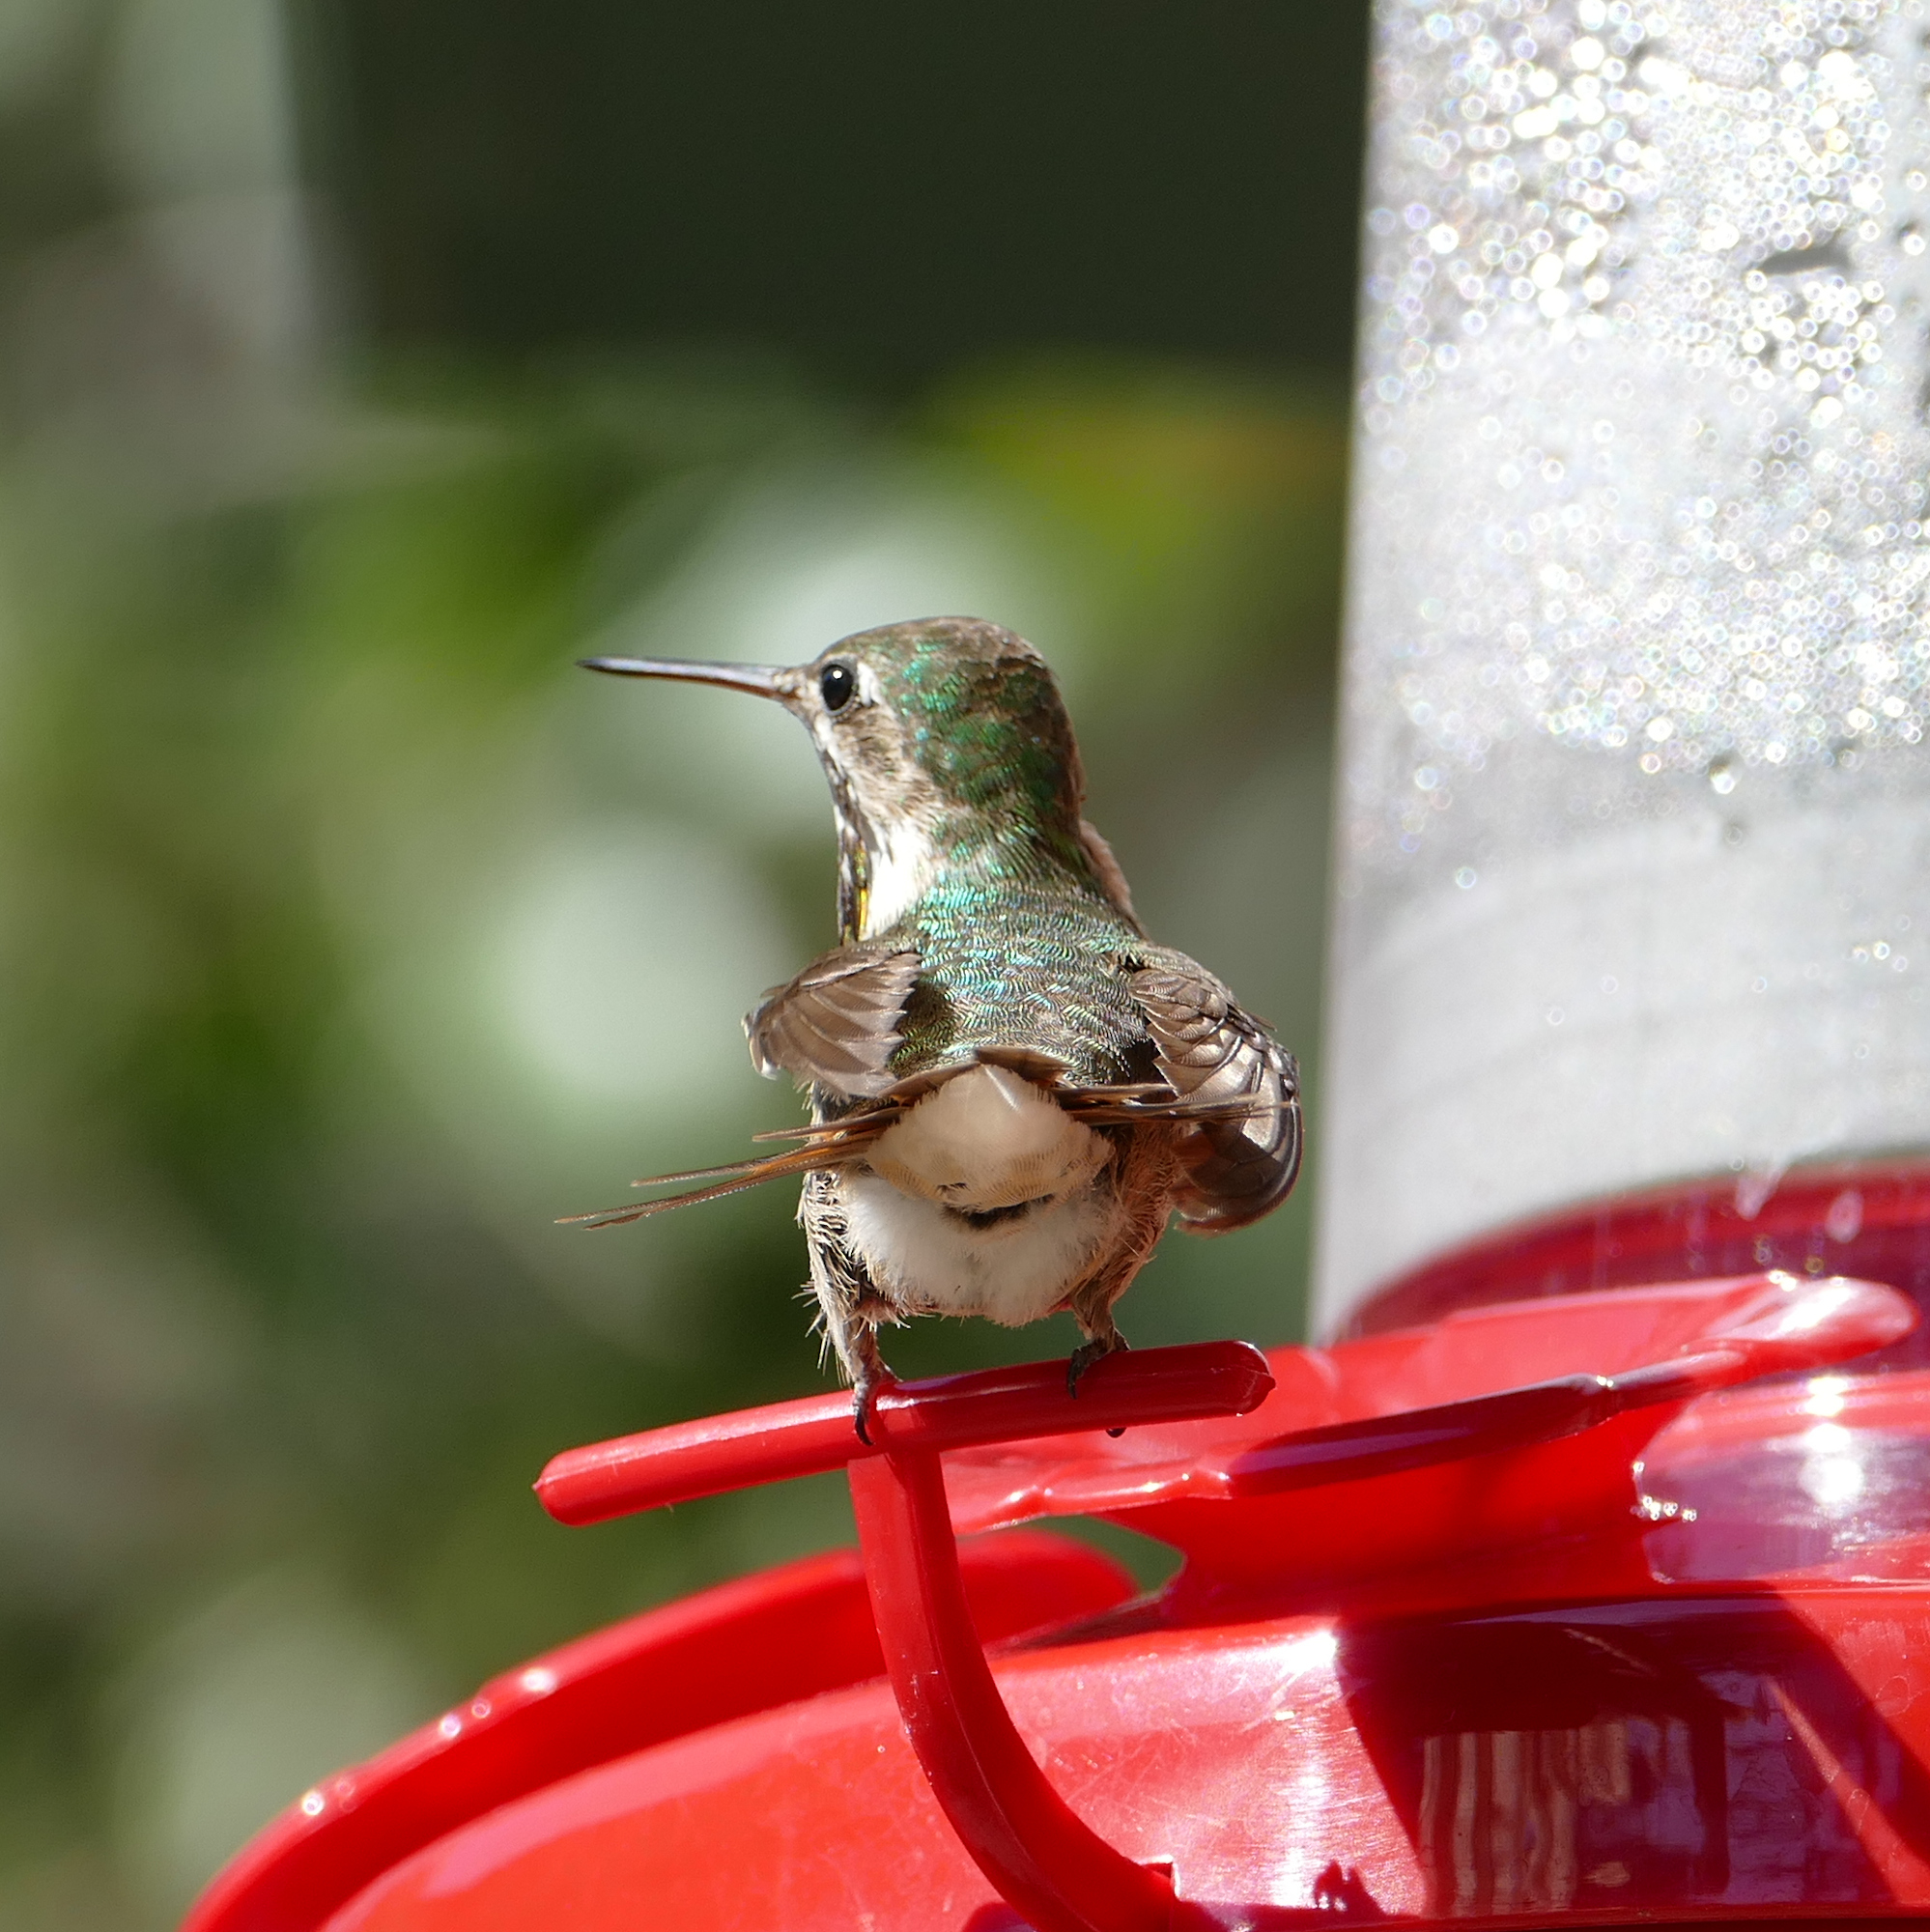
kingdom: Animalia
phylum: Chordata
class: Aves
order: Apodiformes
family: Trochilidae
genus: Selasphorus
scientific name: Selasphorus calliope
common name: Calliope hummingbird
